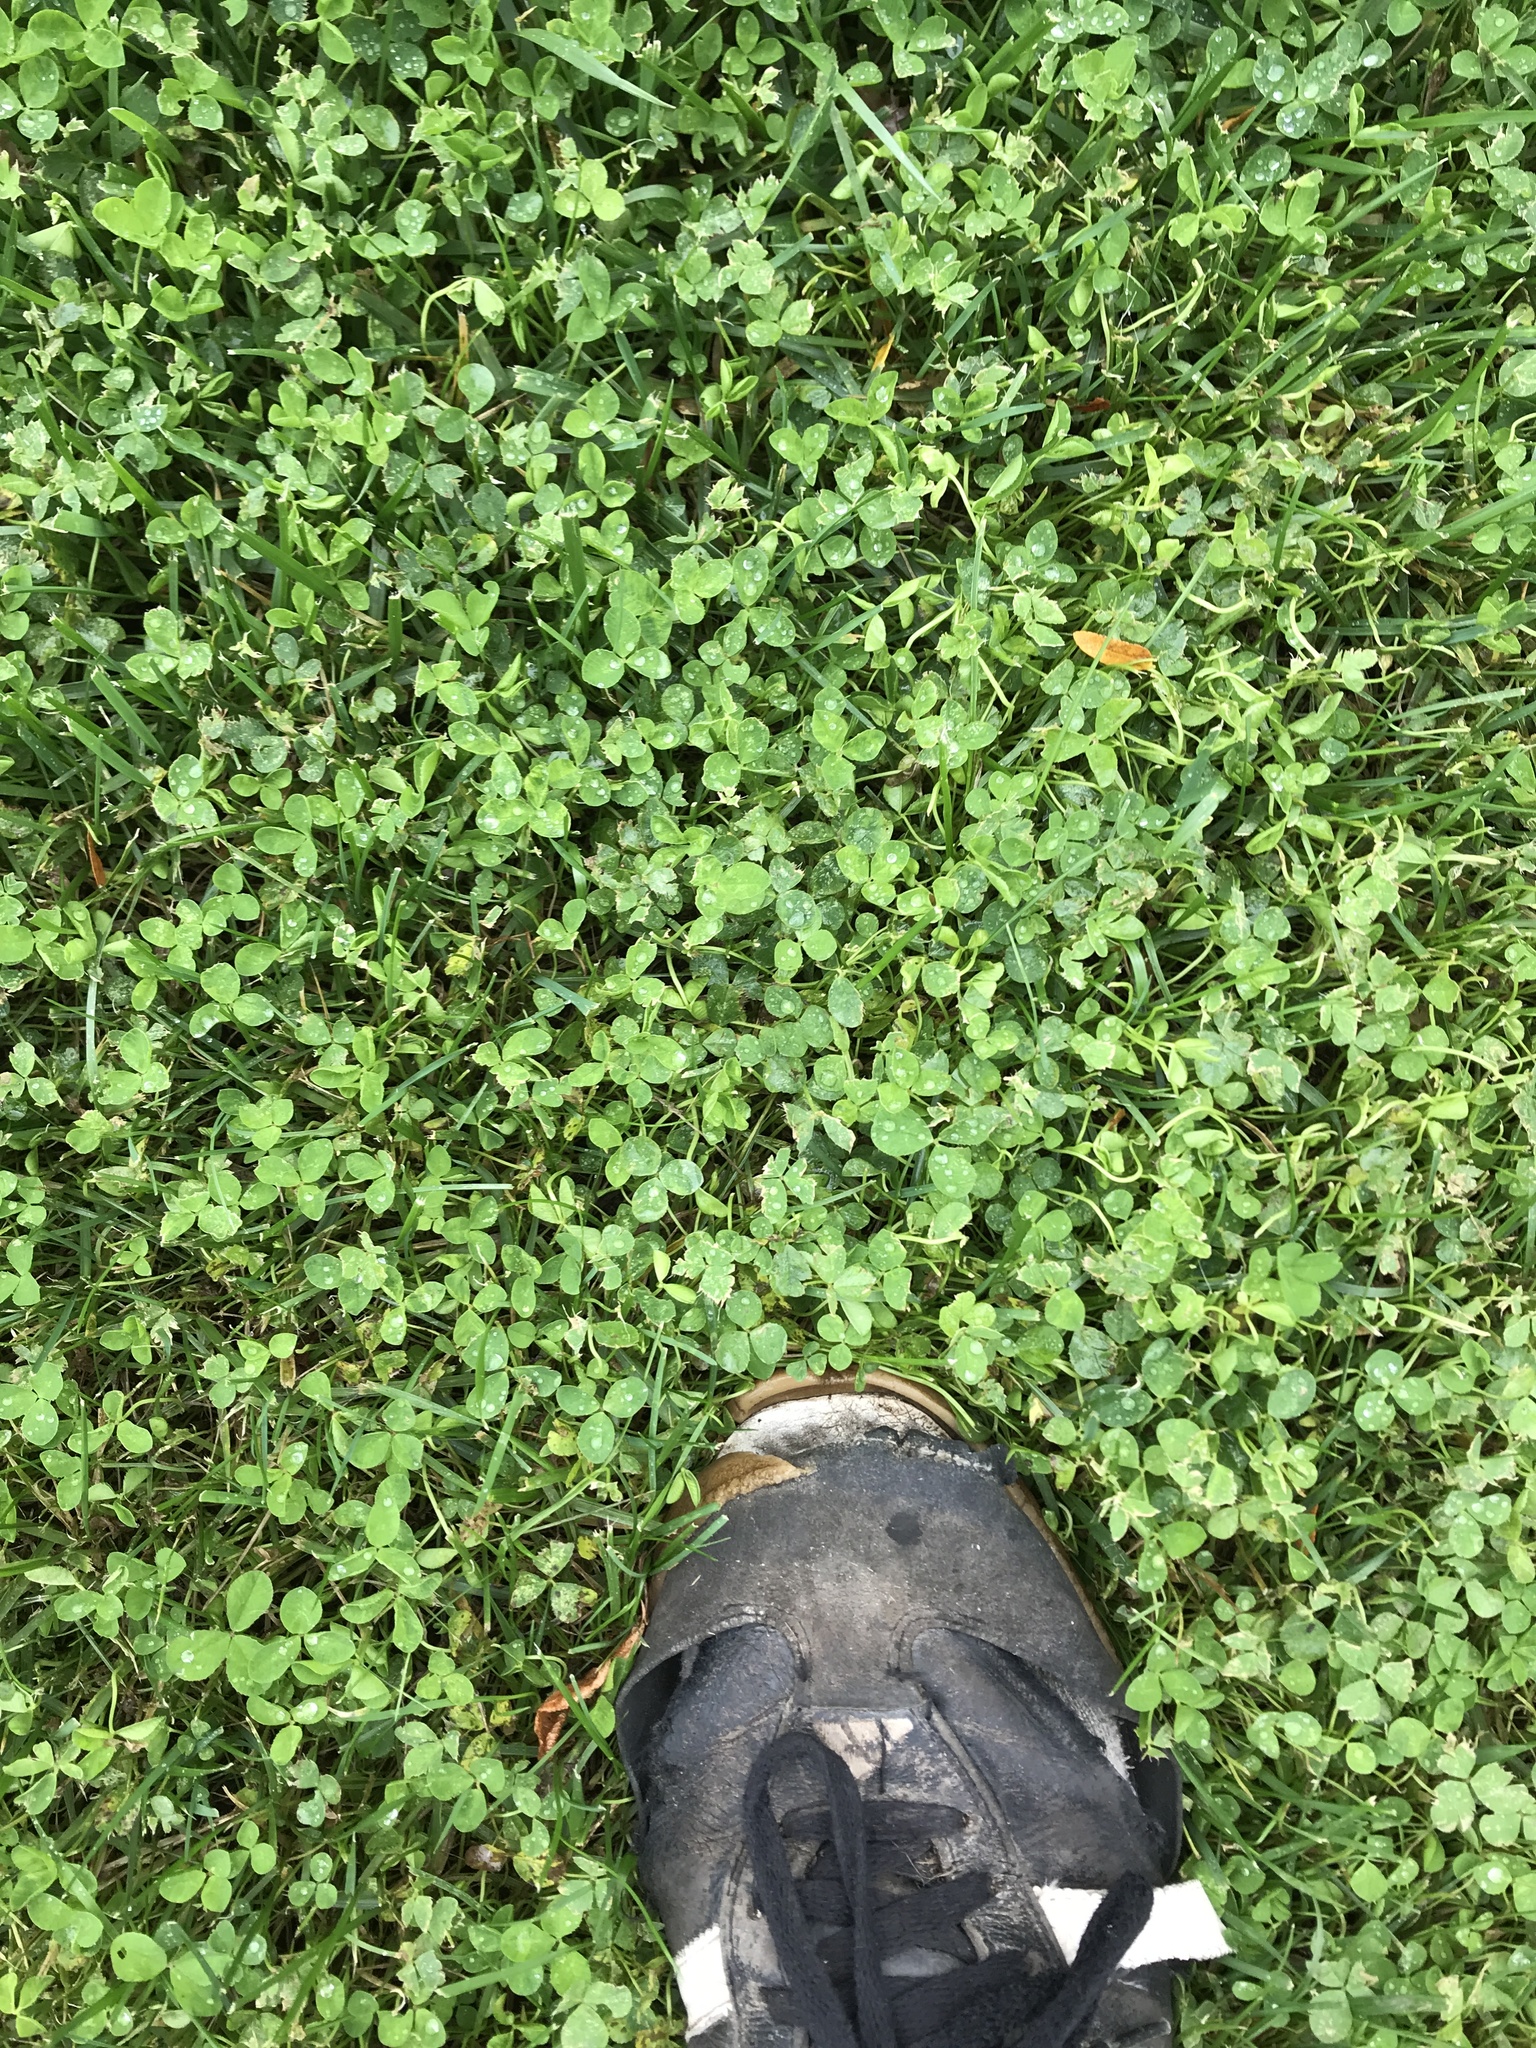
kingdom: Plantae
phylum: Tracheophyta
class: Magnoliopsida
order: Fabales
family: Fabaceae
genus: Trifolium
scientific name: Trifolium repens
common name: White clover
